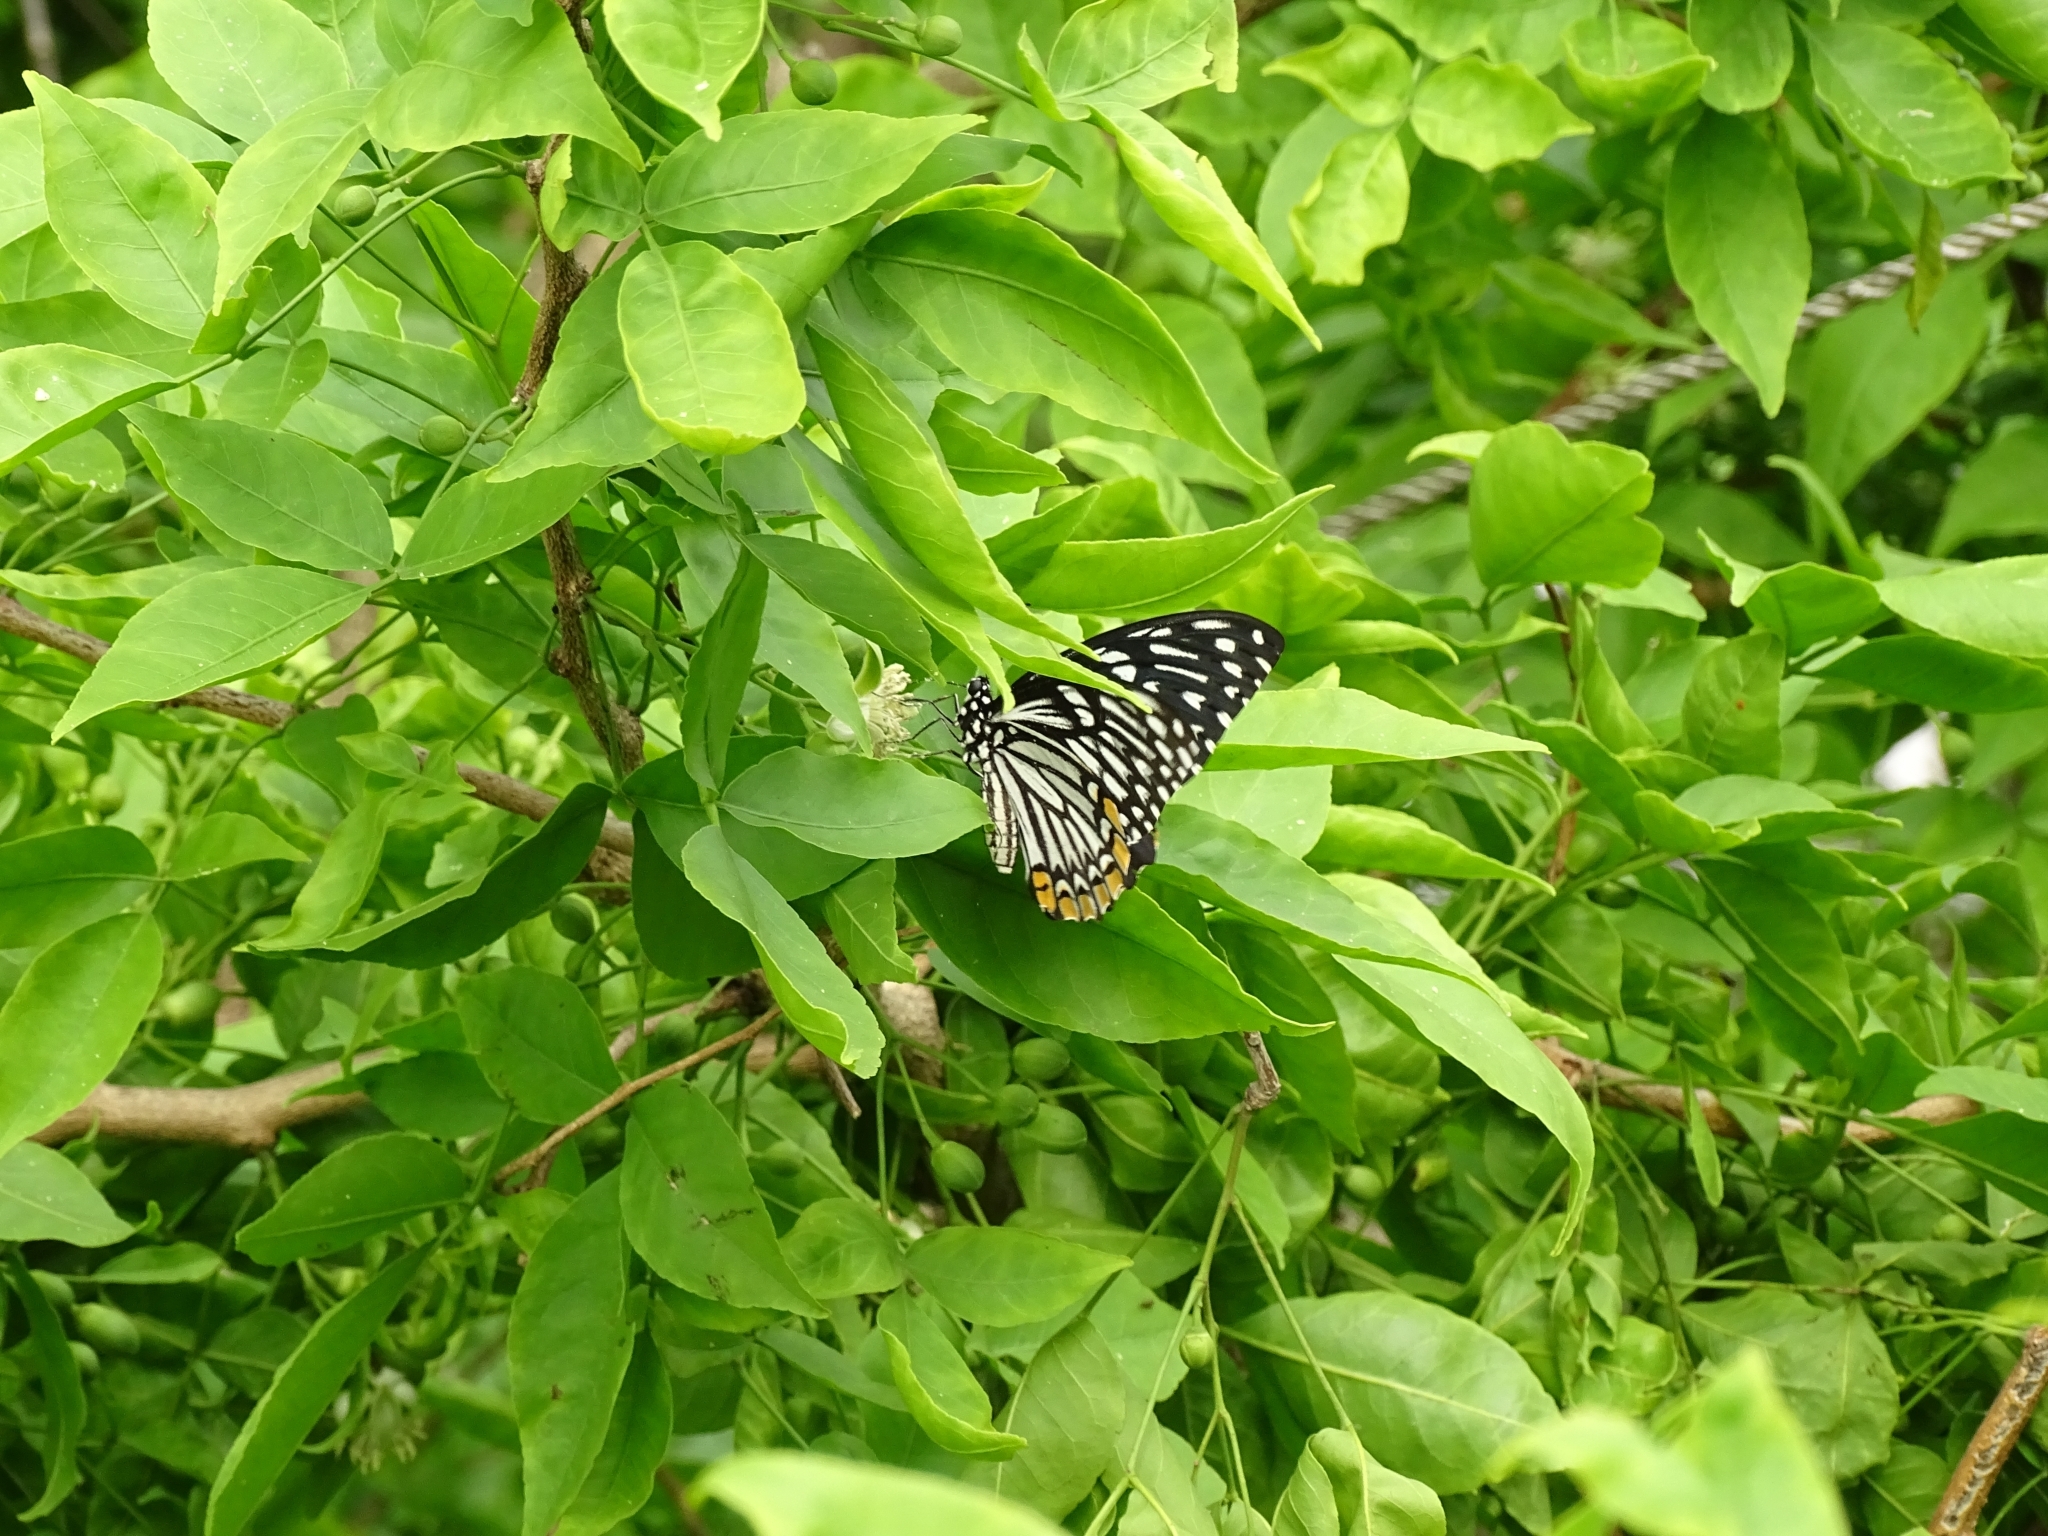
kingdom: Animalia
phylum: Arthropoda
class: Insecta
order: Lepidoptera
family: Papilionidae
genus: Chilasa
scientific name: Chilasa clytia
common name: Common mime
